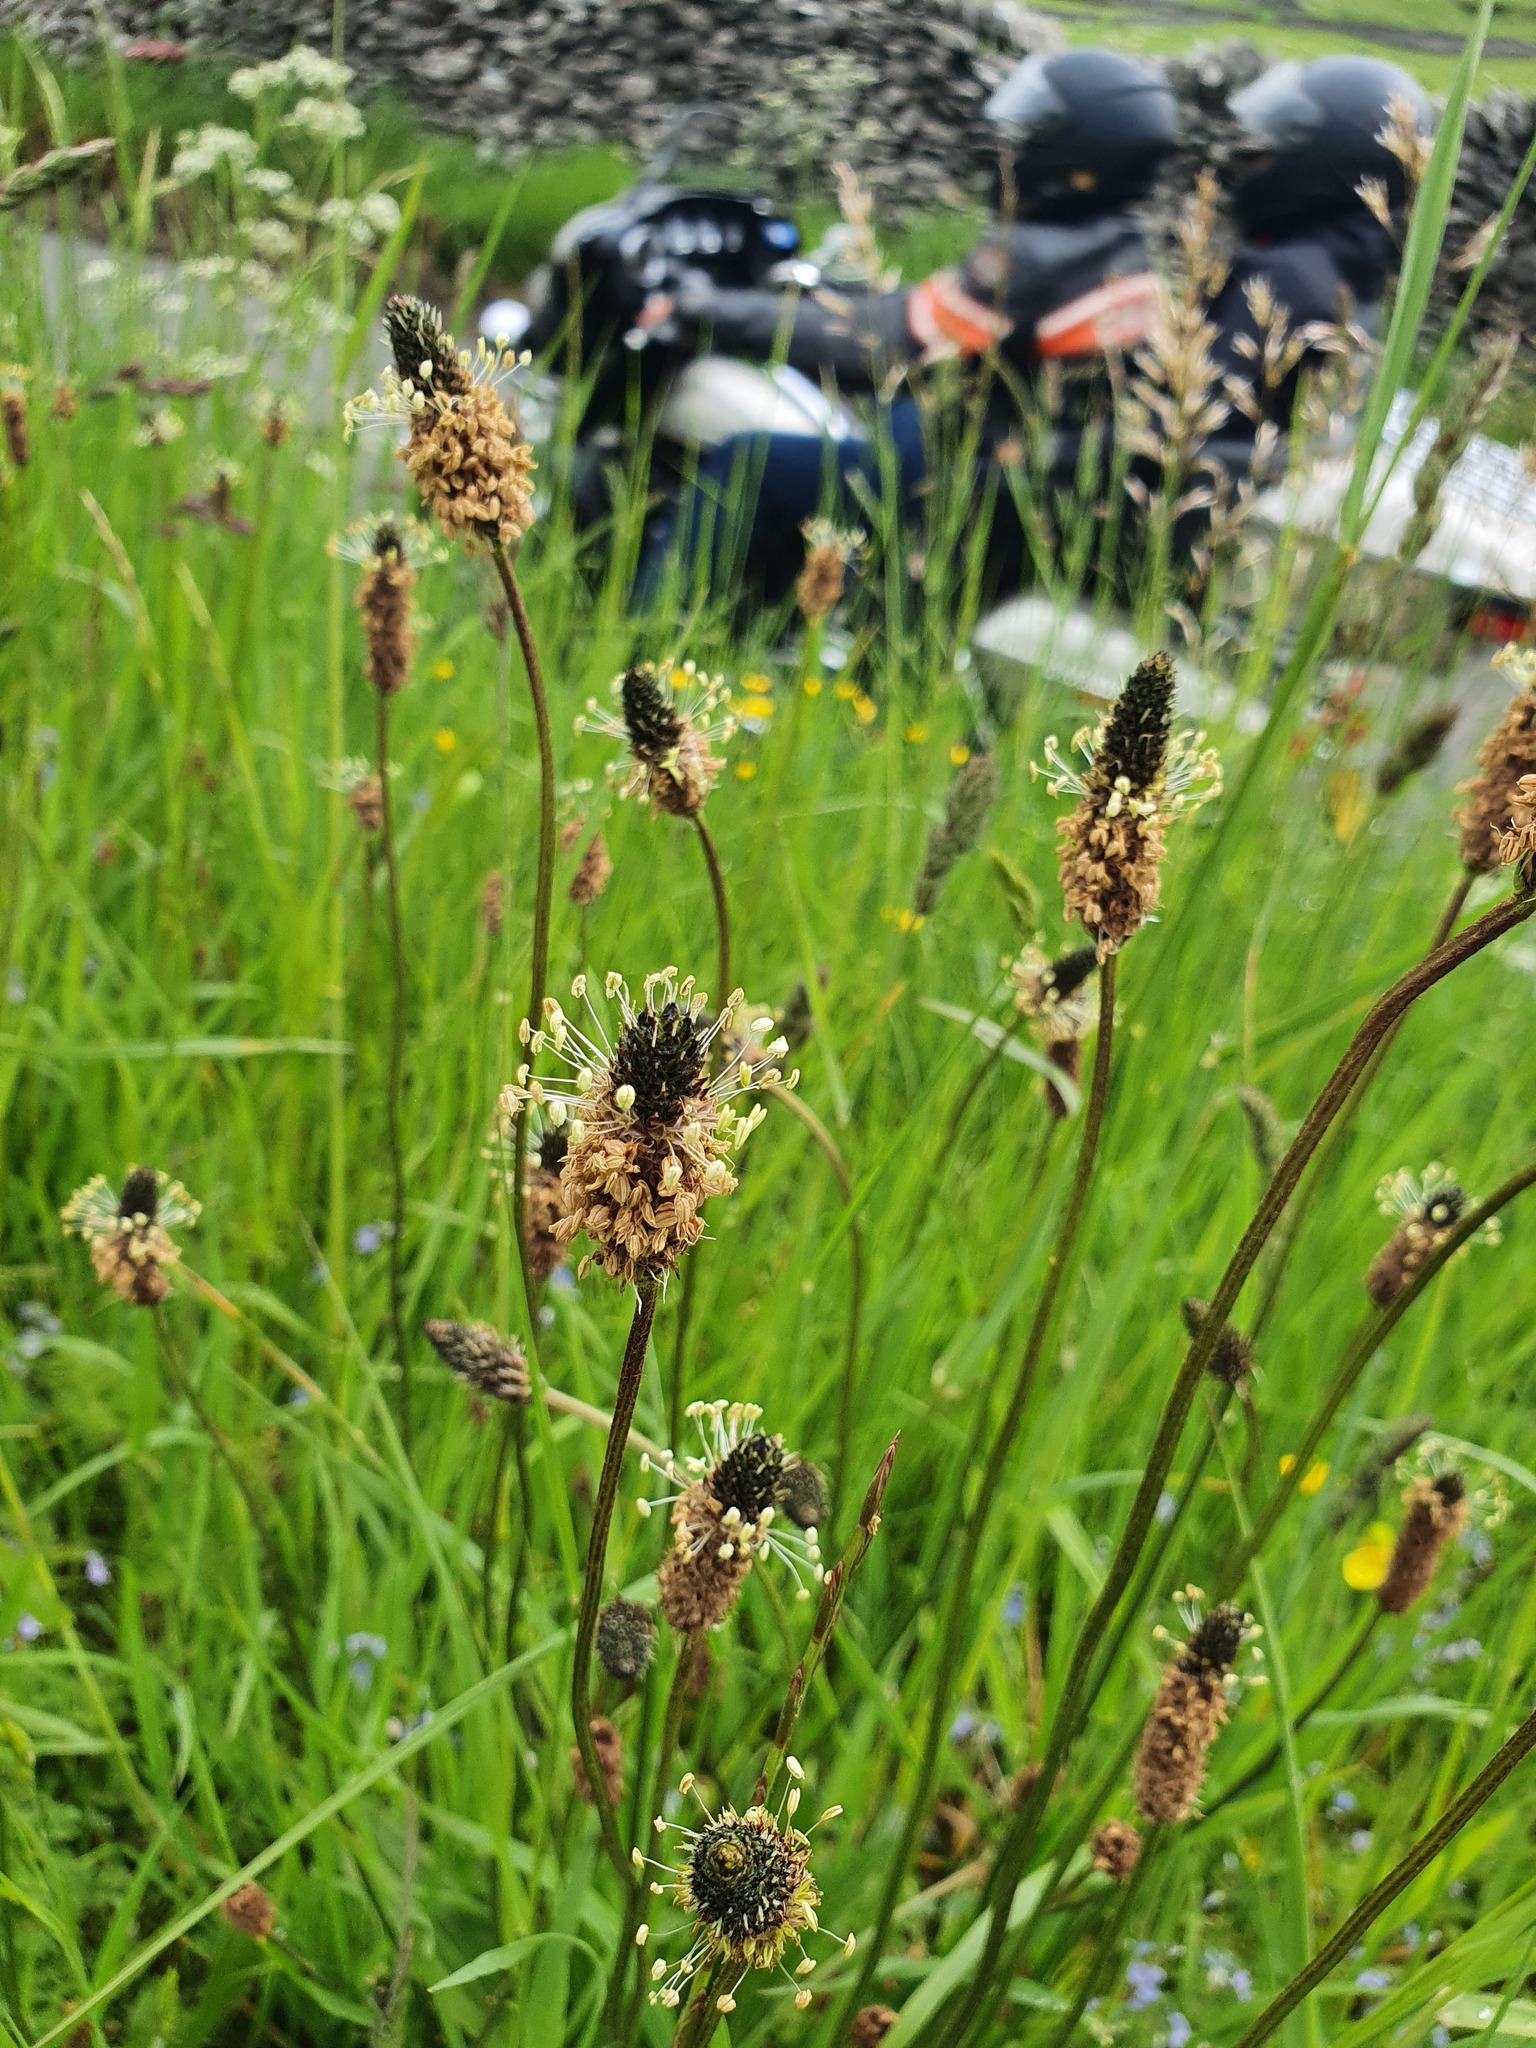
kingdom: Plantae
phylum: Tracheophyta
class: Magnoliopsida
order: Lamiales
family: Plantaginaceae
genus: Plantago
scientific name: Plantago lanceolata
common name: Ribwort plantain
